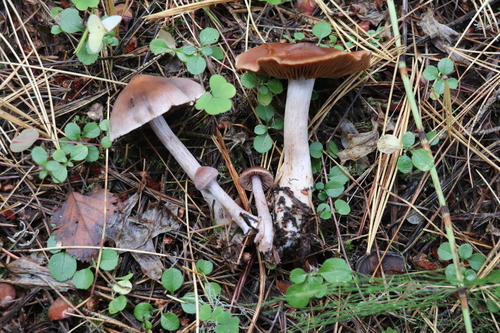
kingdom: Fungi
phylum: Basidiomycota
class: Agaricomycetes
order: Agaricales
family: Cortinariaceae
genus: Cortinarius
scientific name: Cortinarius
